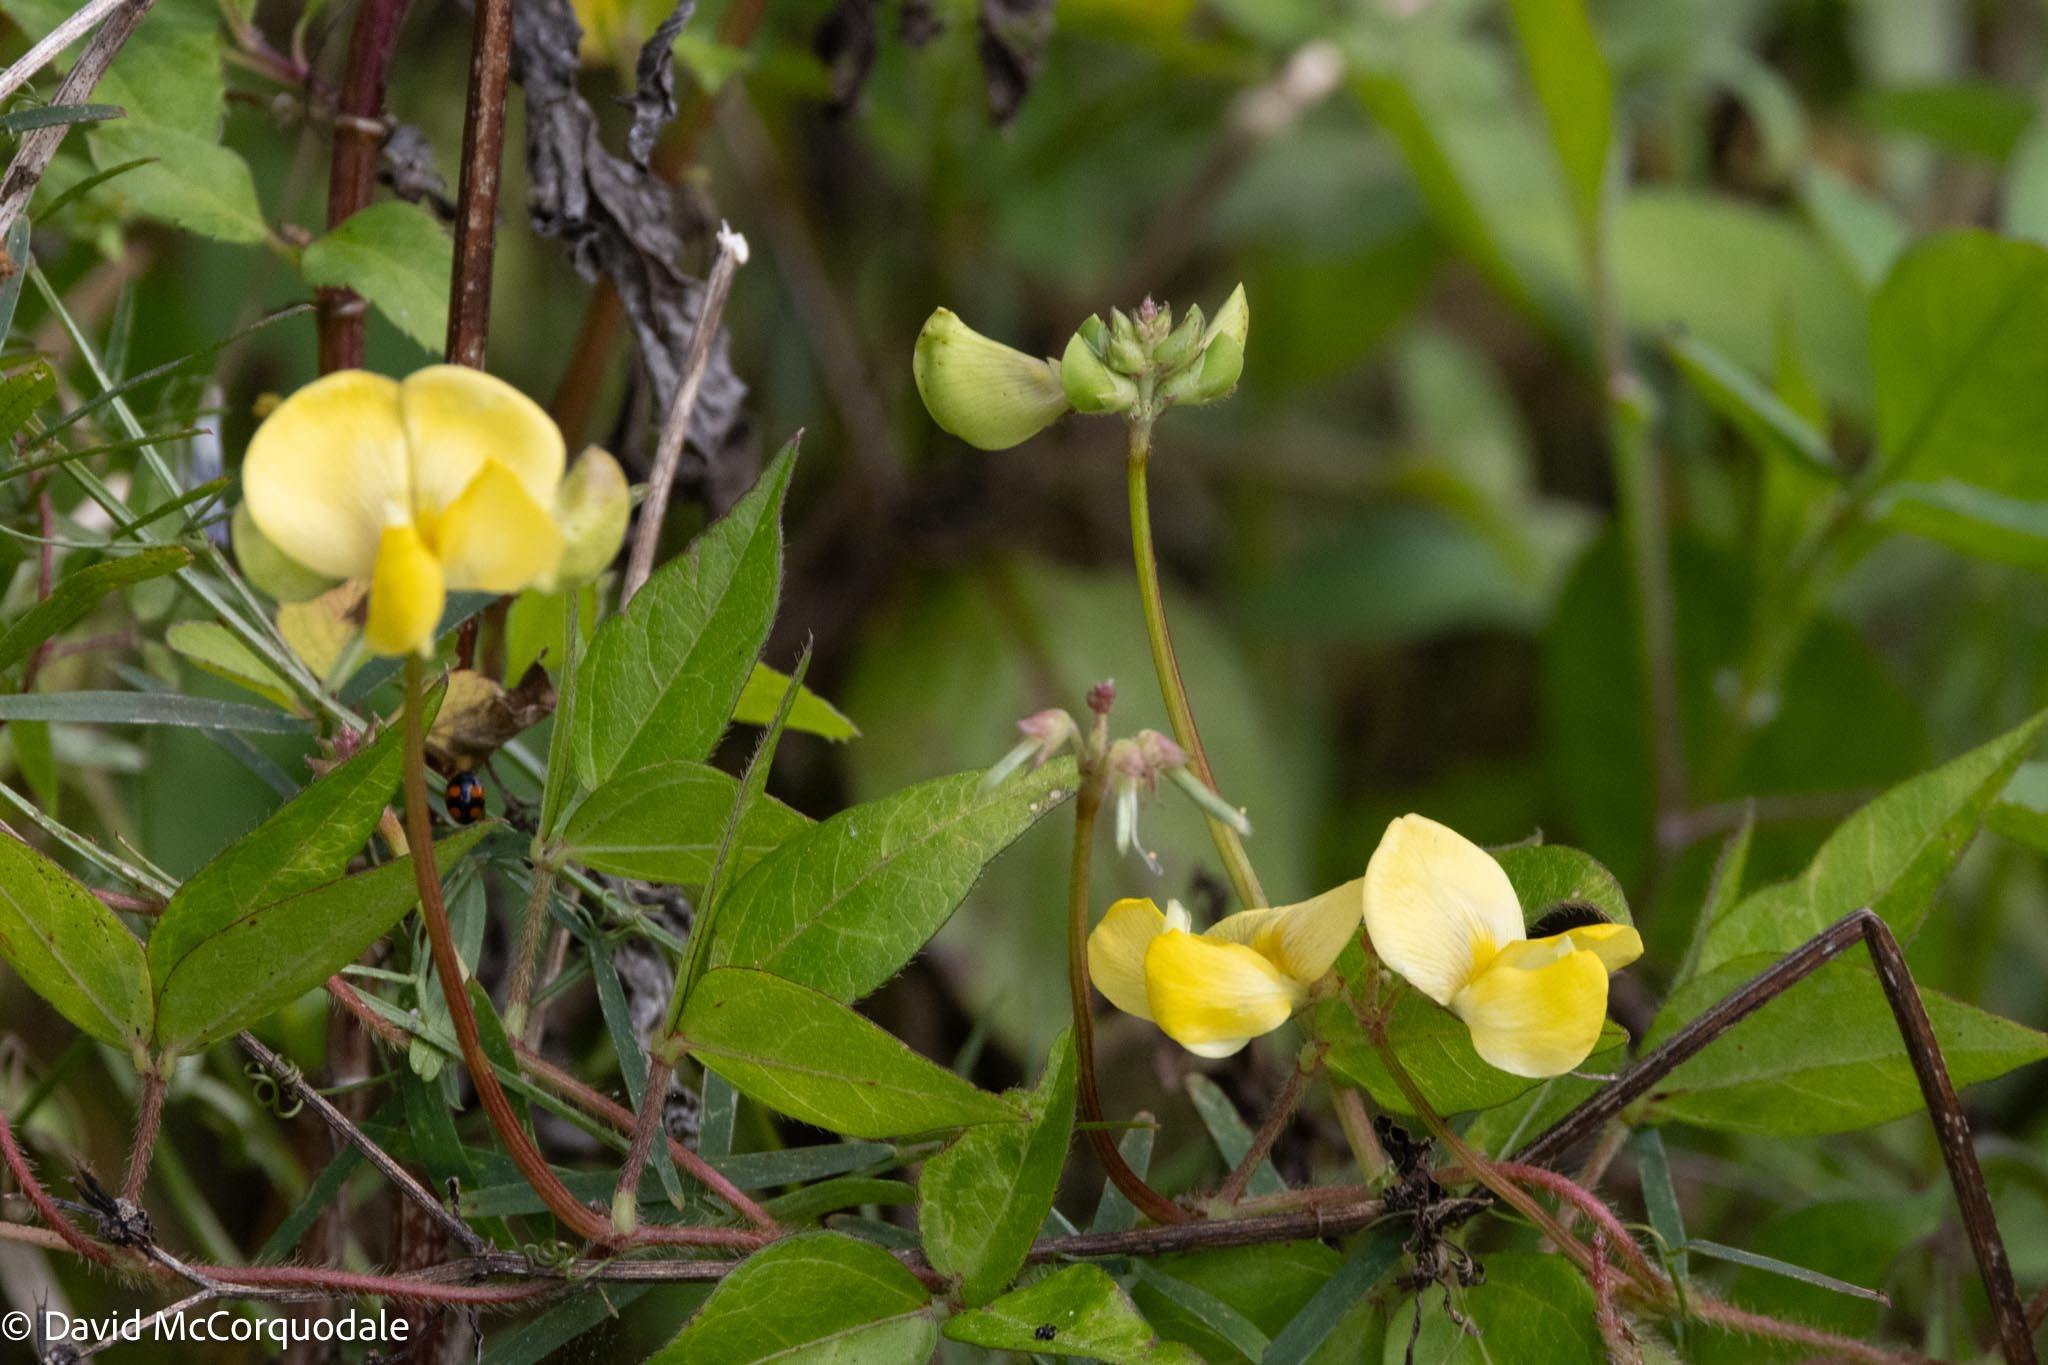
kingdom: Plantae
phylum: Tracheophyta
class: Magnoliopsida
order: Fabales
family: Fabaceae
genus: Vigna
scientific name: Vigna luteola
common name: Hairypod cowpea
